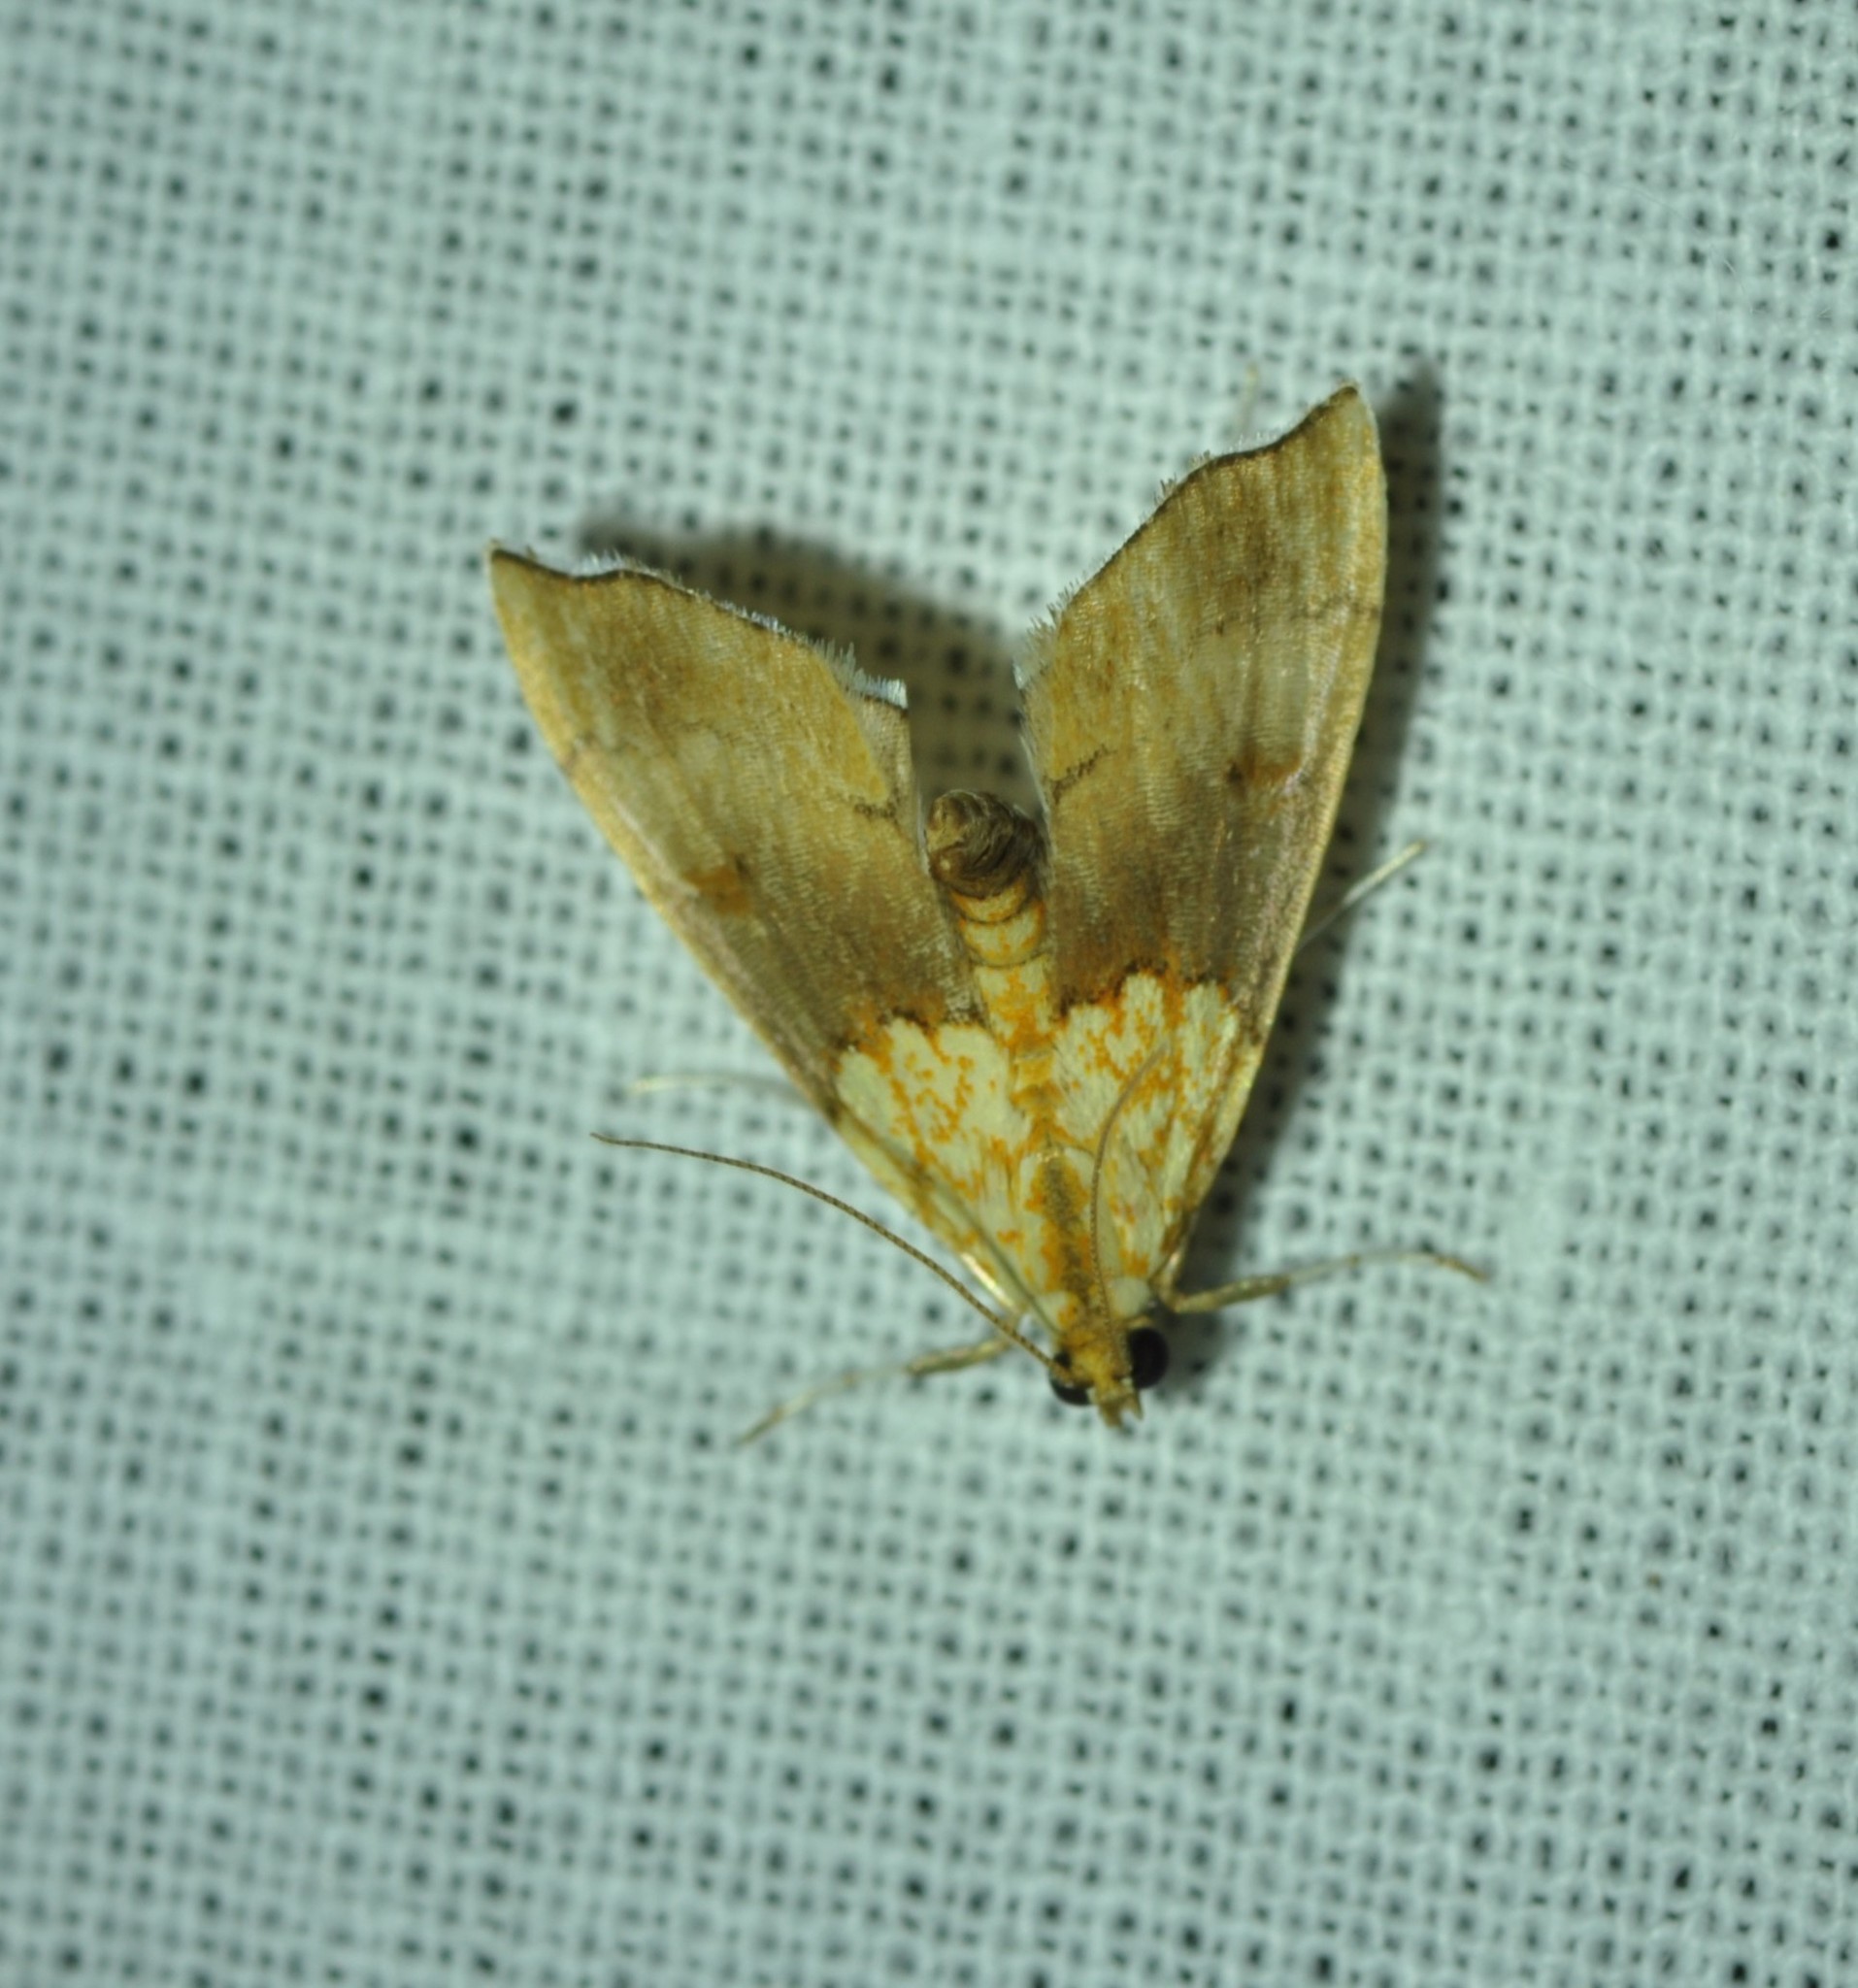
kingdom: Animalia
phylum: Arthropoda
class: Insecta
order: Lepidoptera
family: Crambidae
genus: Agrotera
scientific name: Agrotera nemoralis
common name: Beautiful pearl
